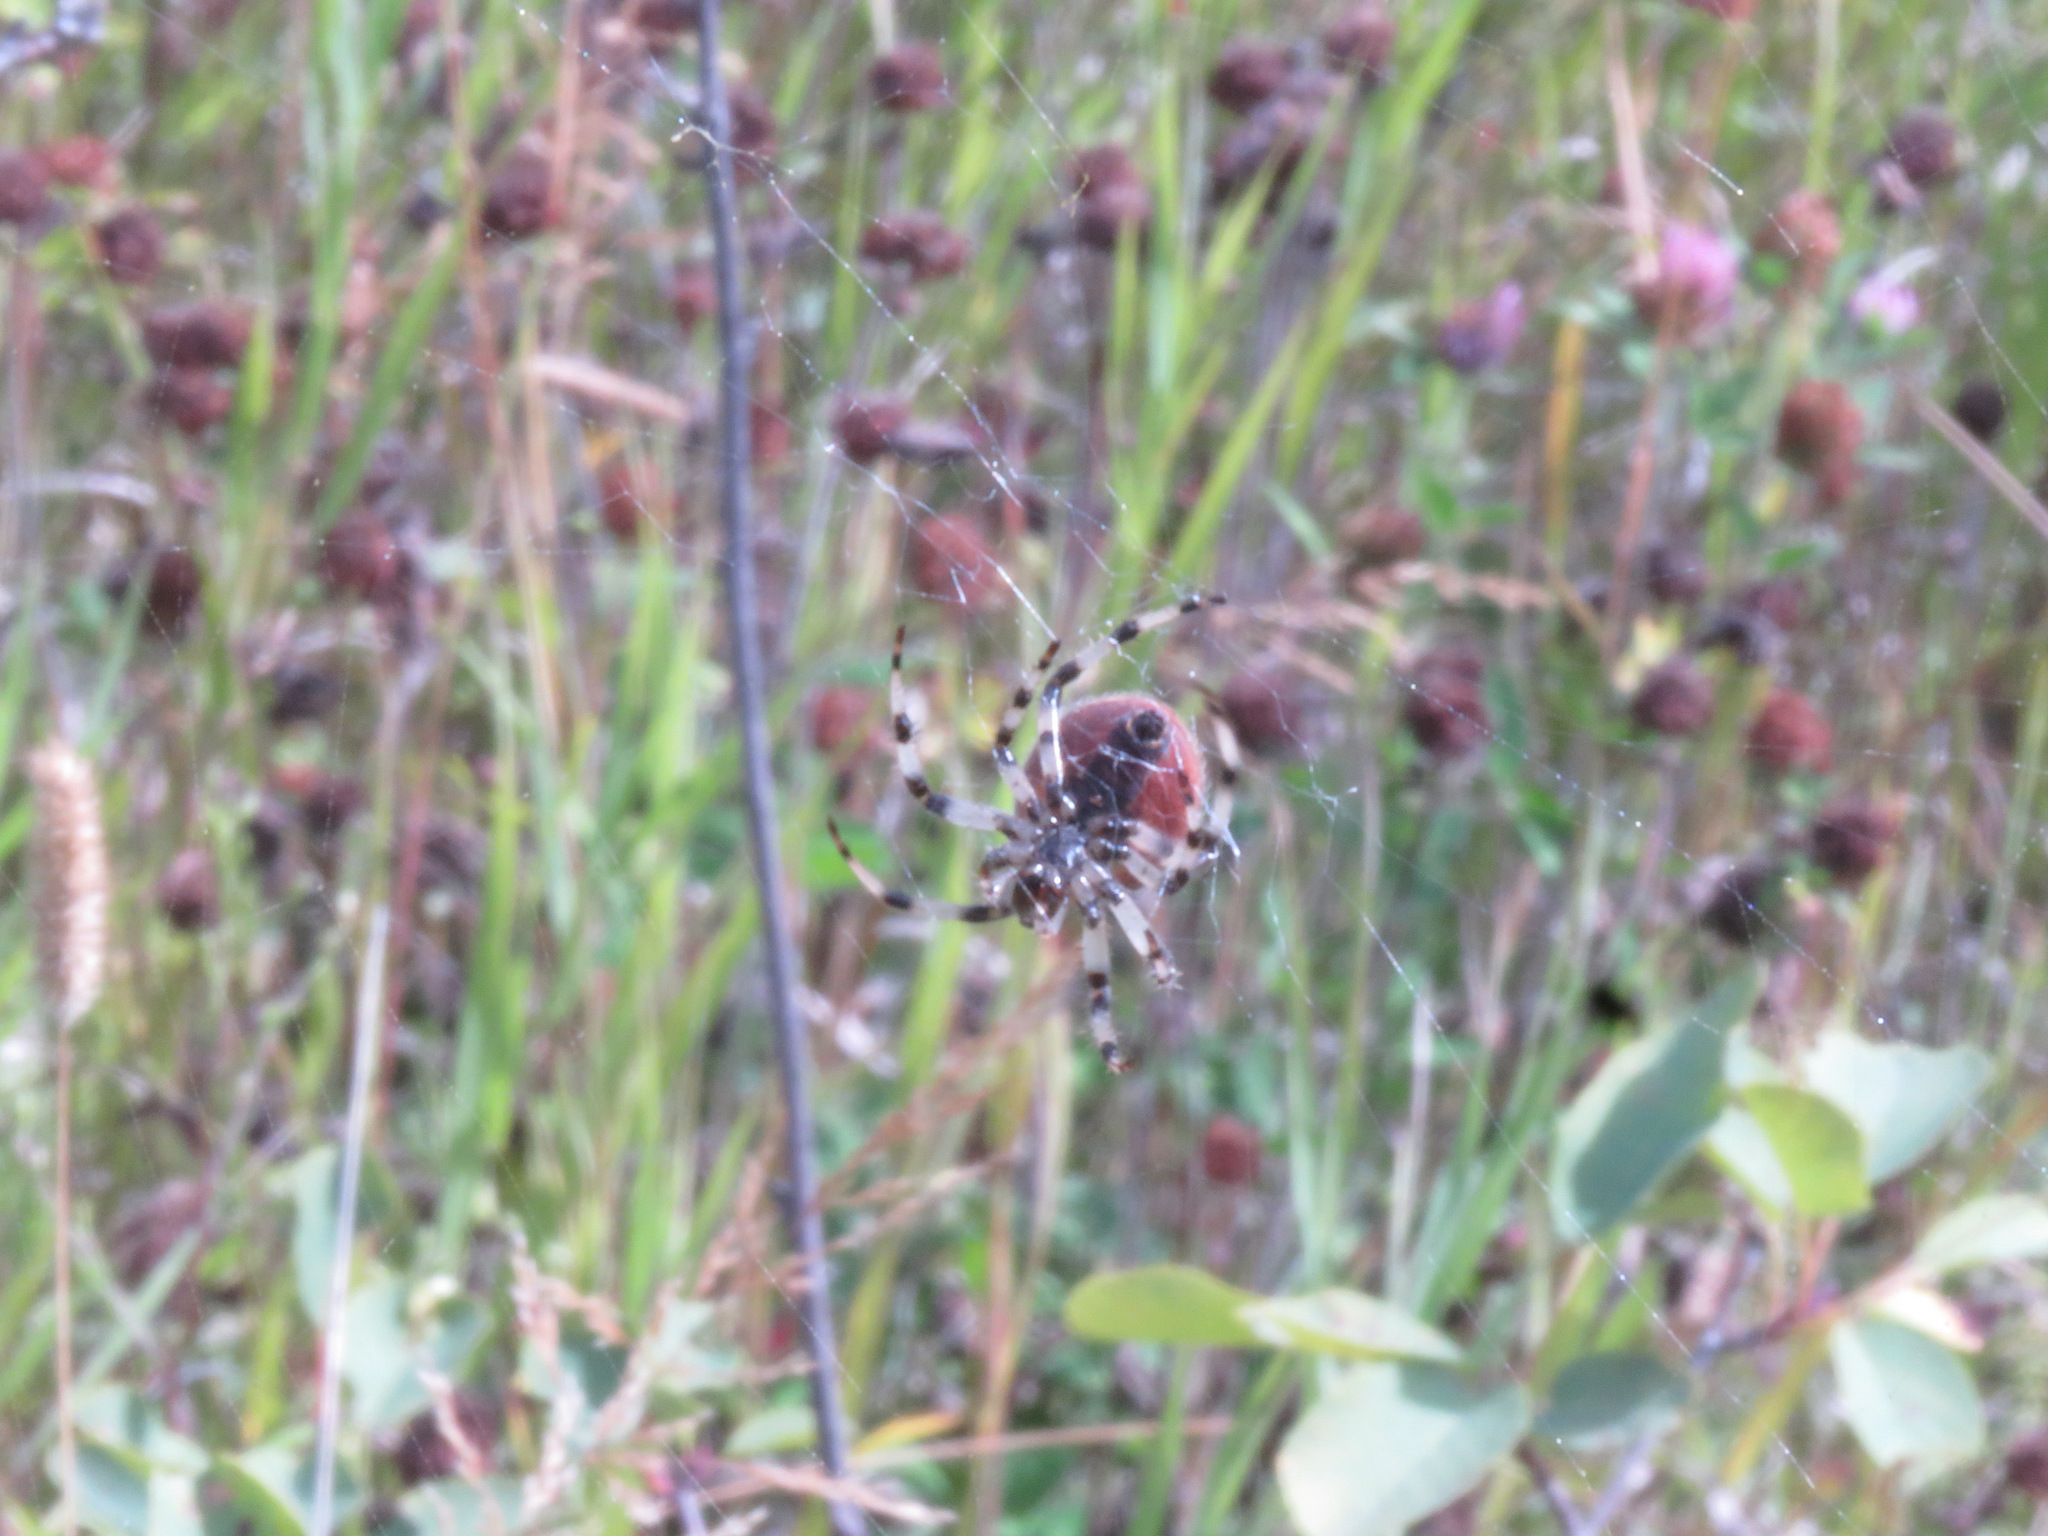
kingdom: Animalia
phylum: Arthropoda
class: Arachnida
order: Araneae
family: Araneidae
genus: Araneus
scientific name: Araneus trifolium
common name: Shamrock orbweaver
